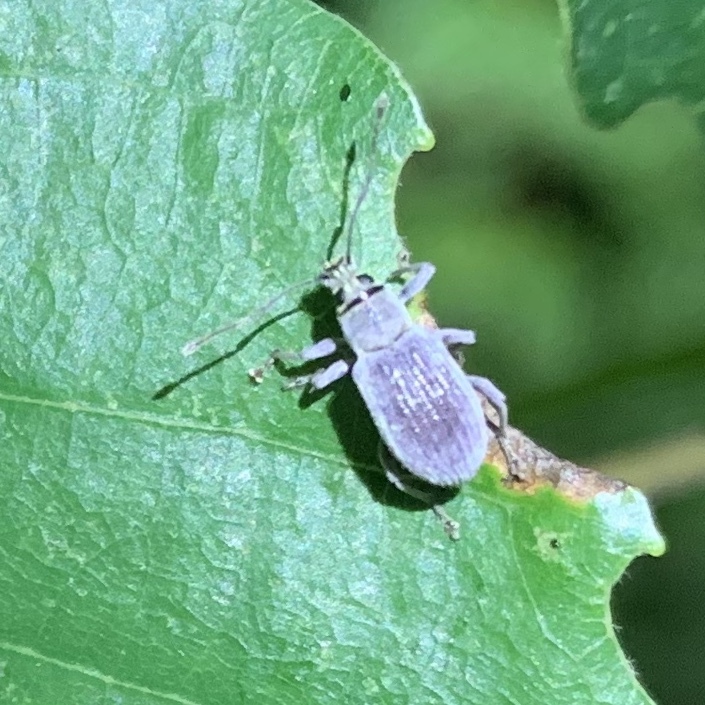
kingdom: Animalia
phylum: Arthropoda
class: Insecta
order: Coleoptera
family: Curculionidae
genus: Cyrtepistomus
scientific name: Cyrtepistomus castaneus
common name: Weevil
